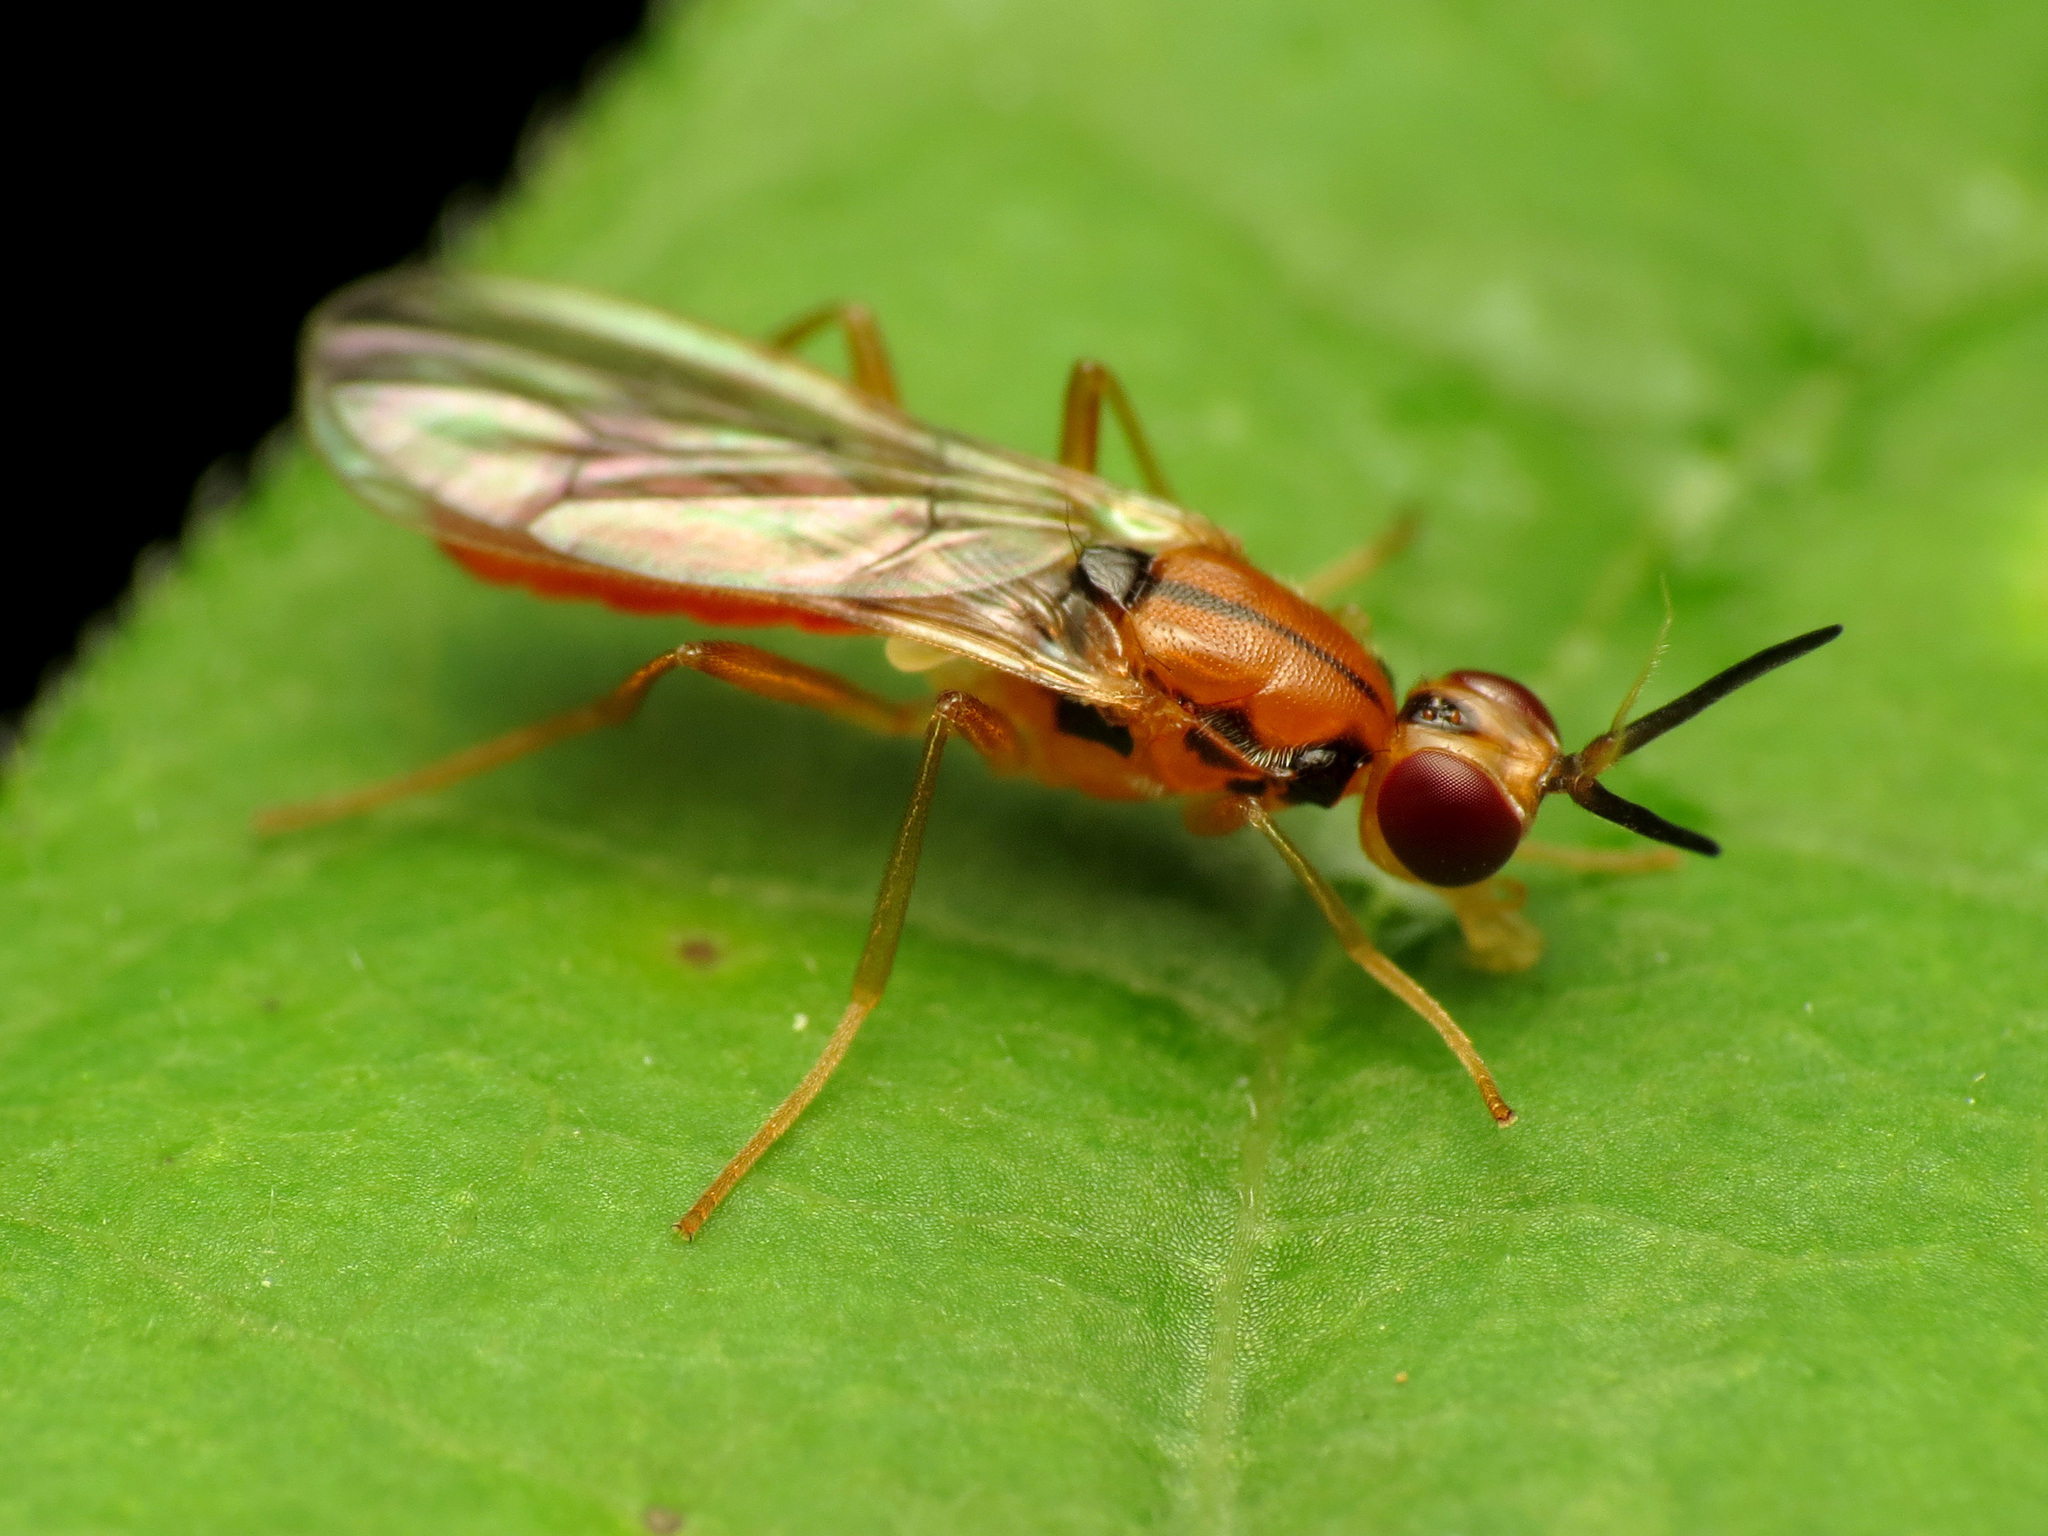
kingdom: Animalia
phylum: Arthropoda
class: Insecta
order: Diptera
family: Psilidae
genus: Loxocera
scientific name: Loxocera cylindrica
